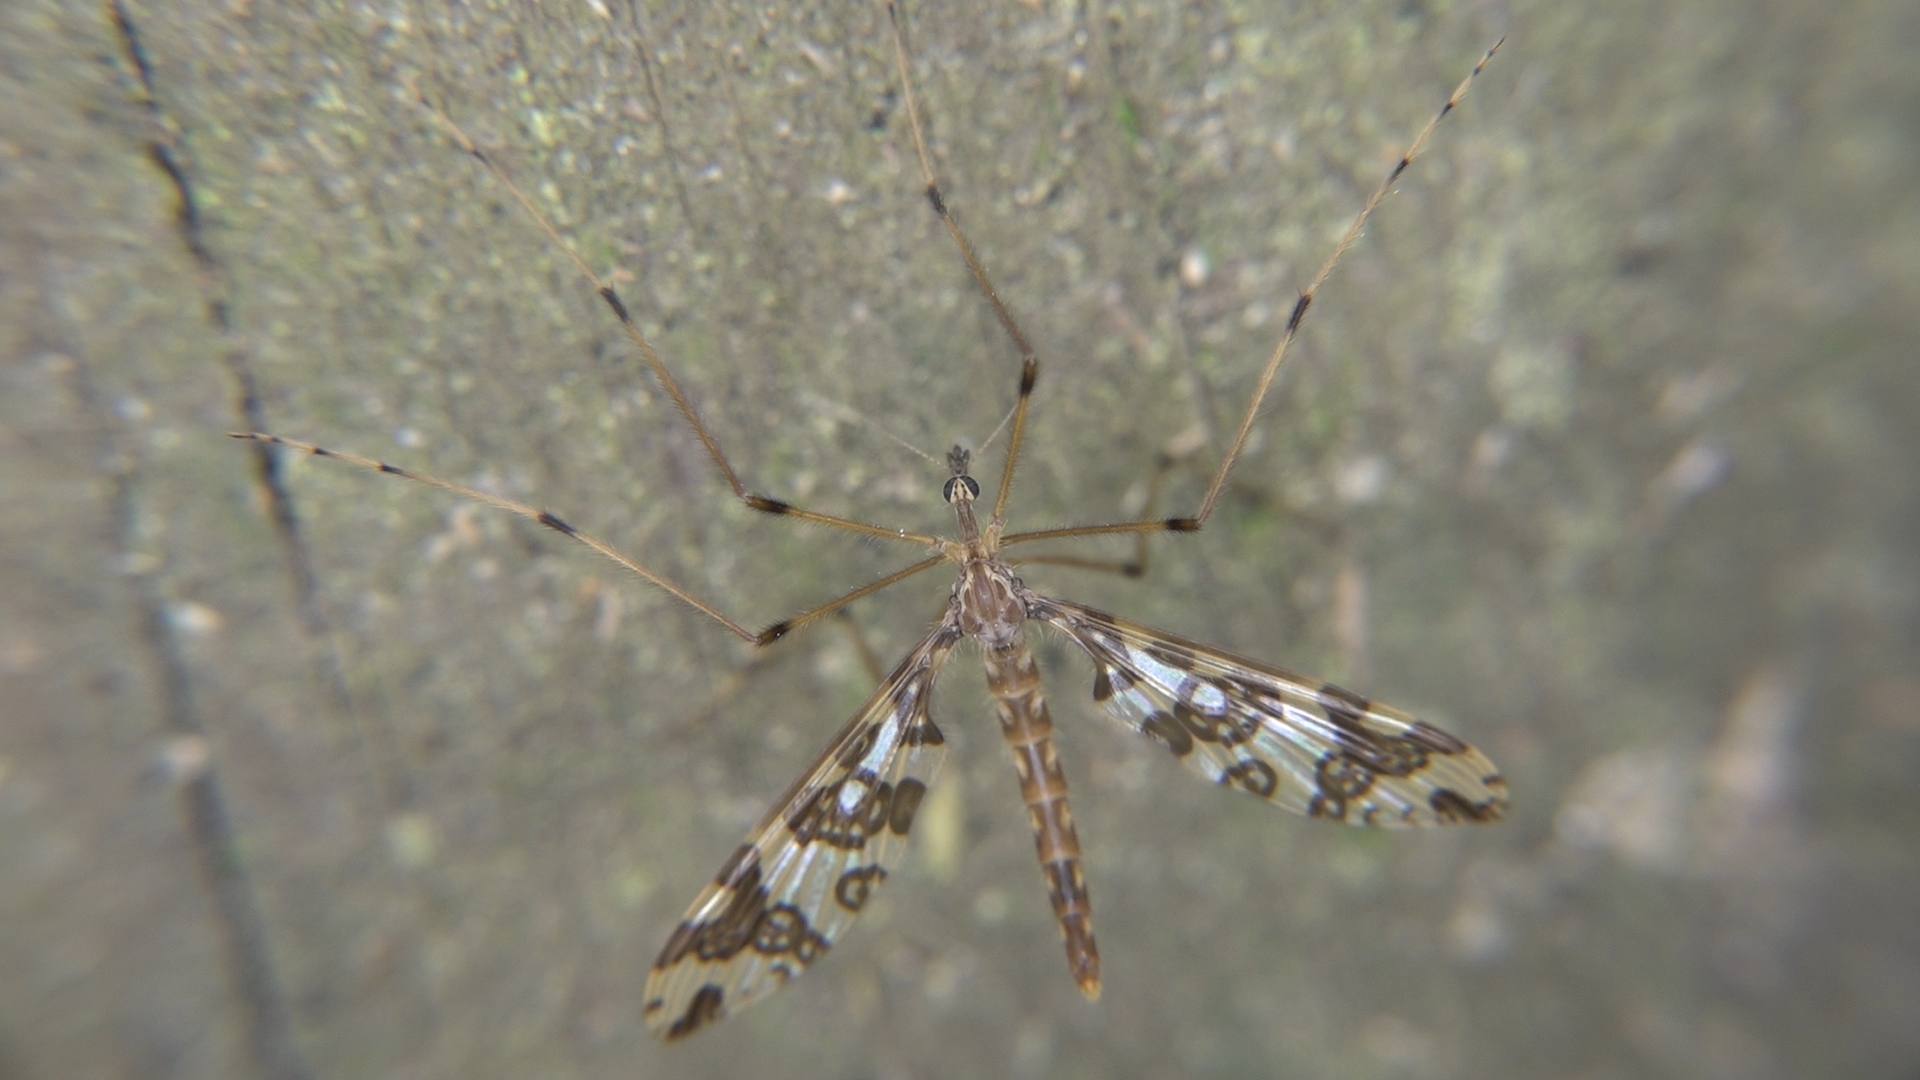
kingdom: Animalia
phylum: Arthropoda
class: Insecta
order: Diptera
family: Tanyderidae
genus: Tanyderus
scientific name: Tanyderus annuliferus
